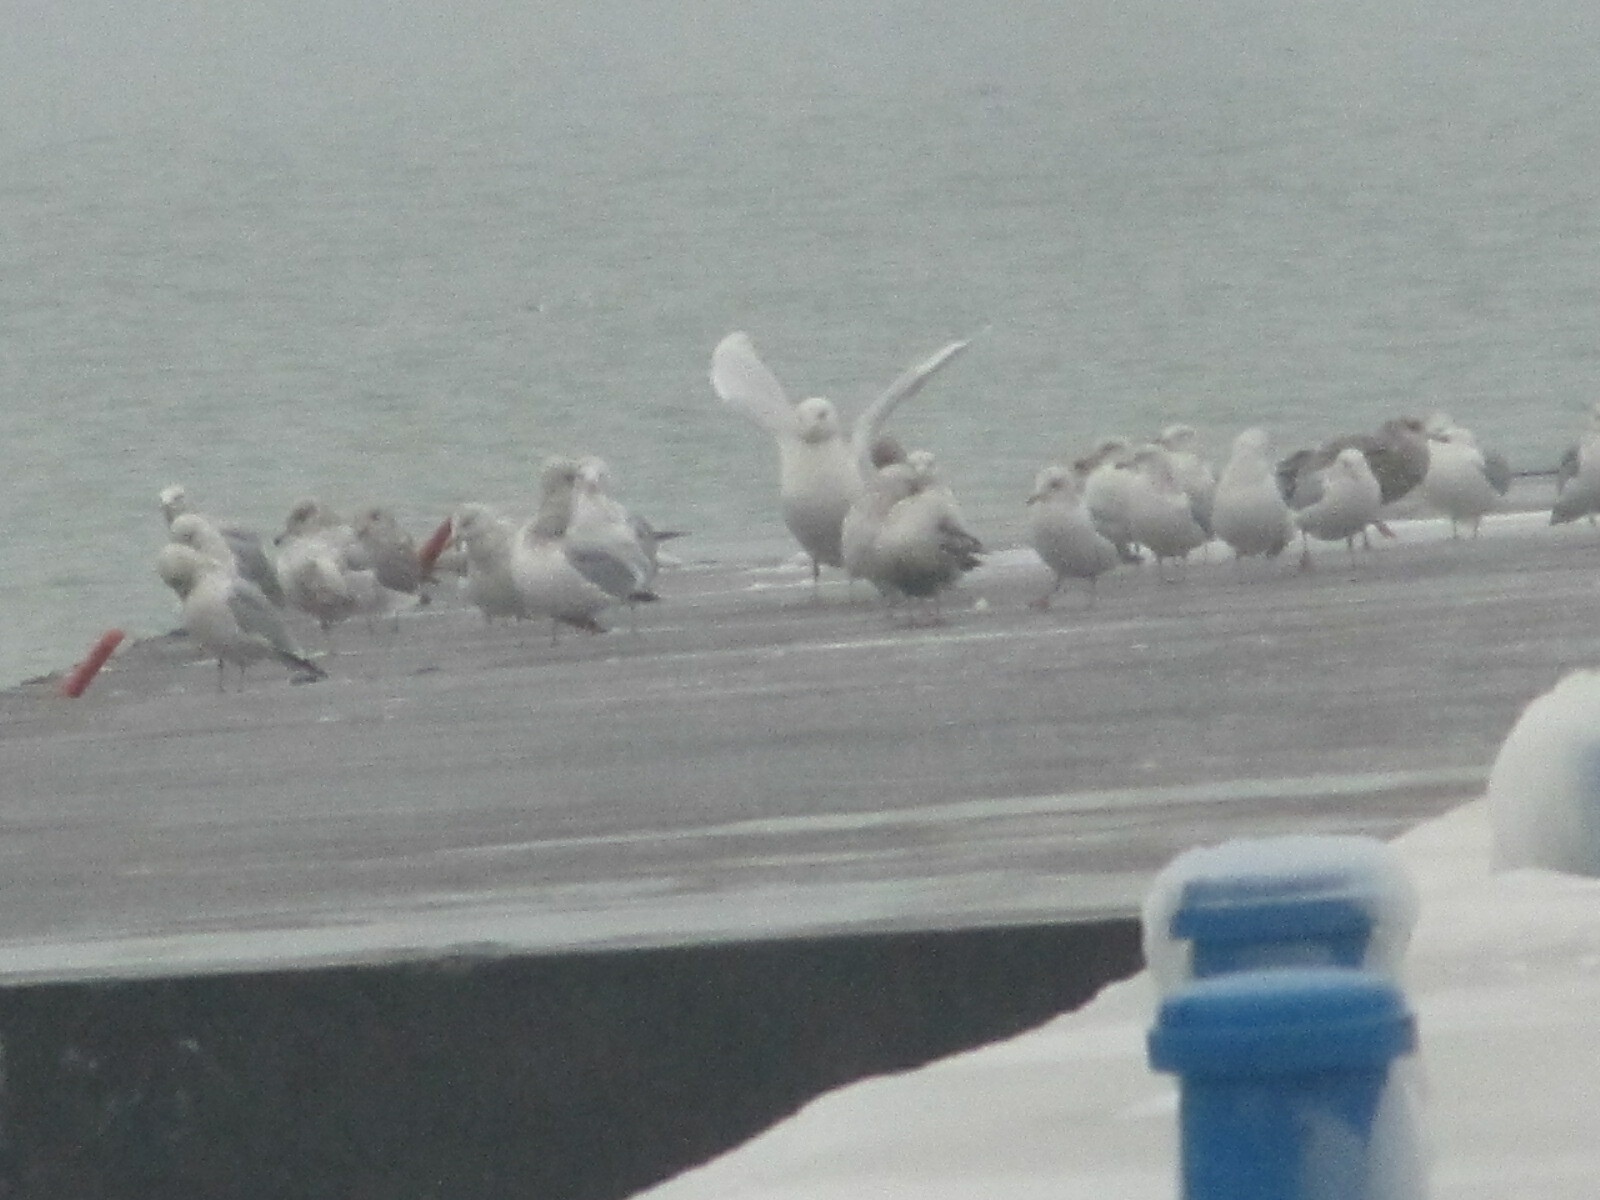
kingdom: Animalia
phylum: Chordata
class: Aves
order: Charadriiformes
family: Laridae
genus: Larus
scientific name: Larus hyperboreus
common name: Glaucous gull
